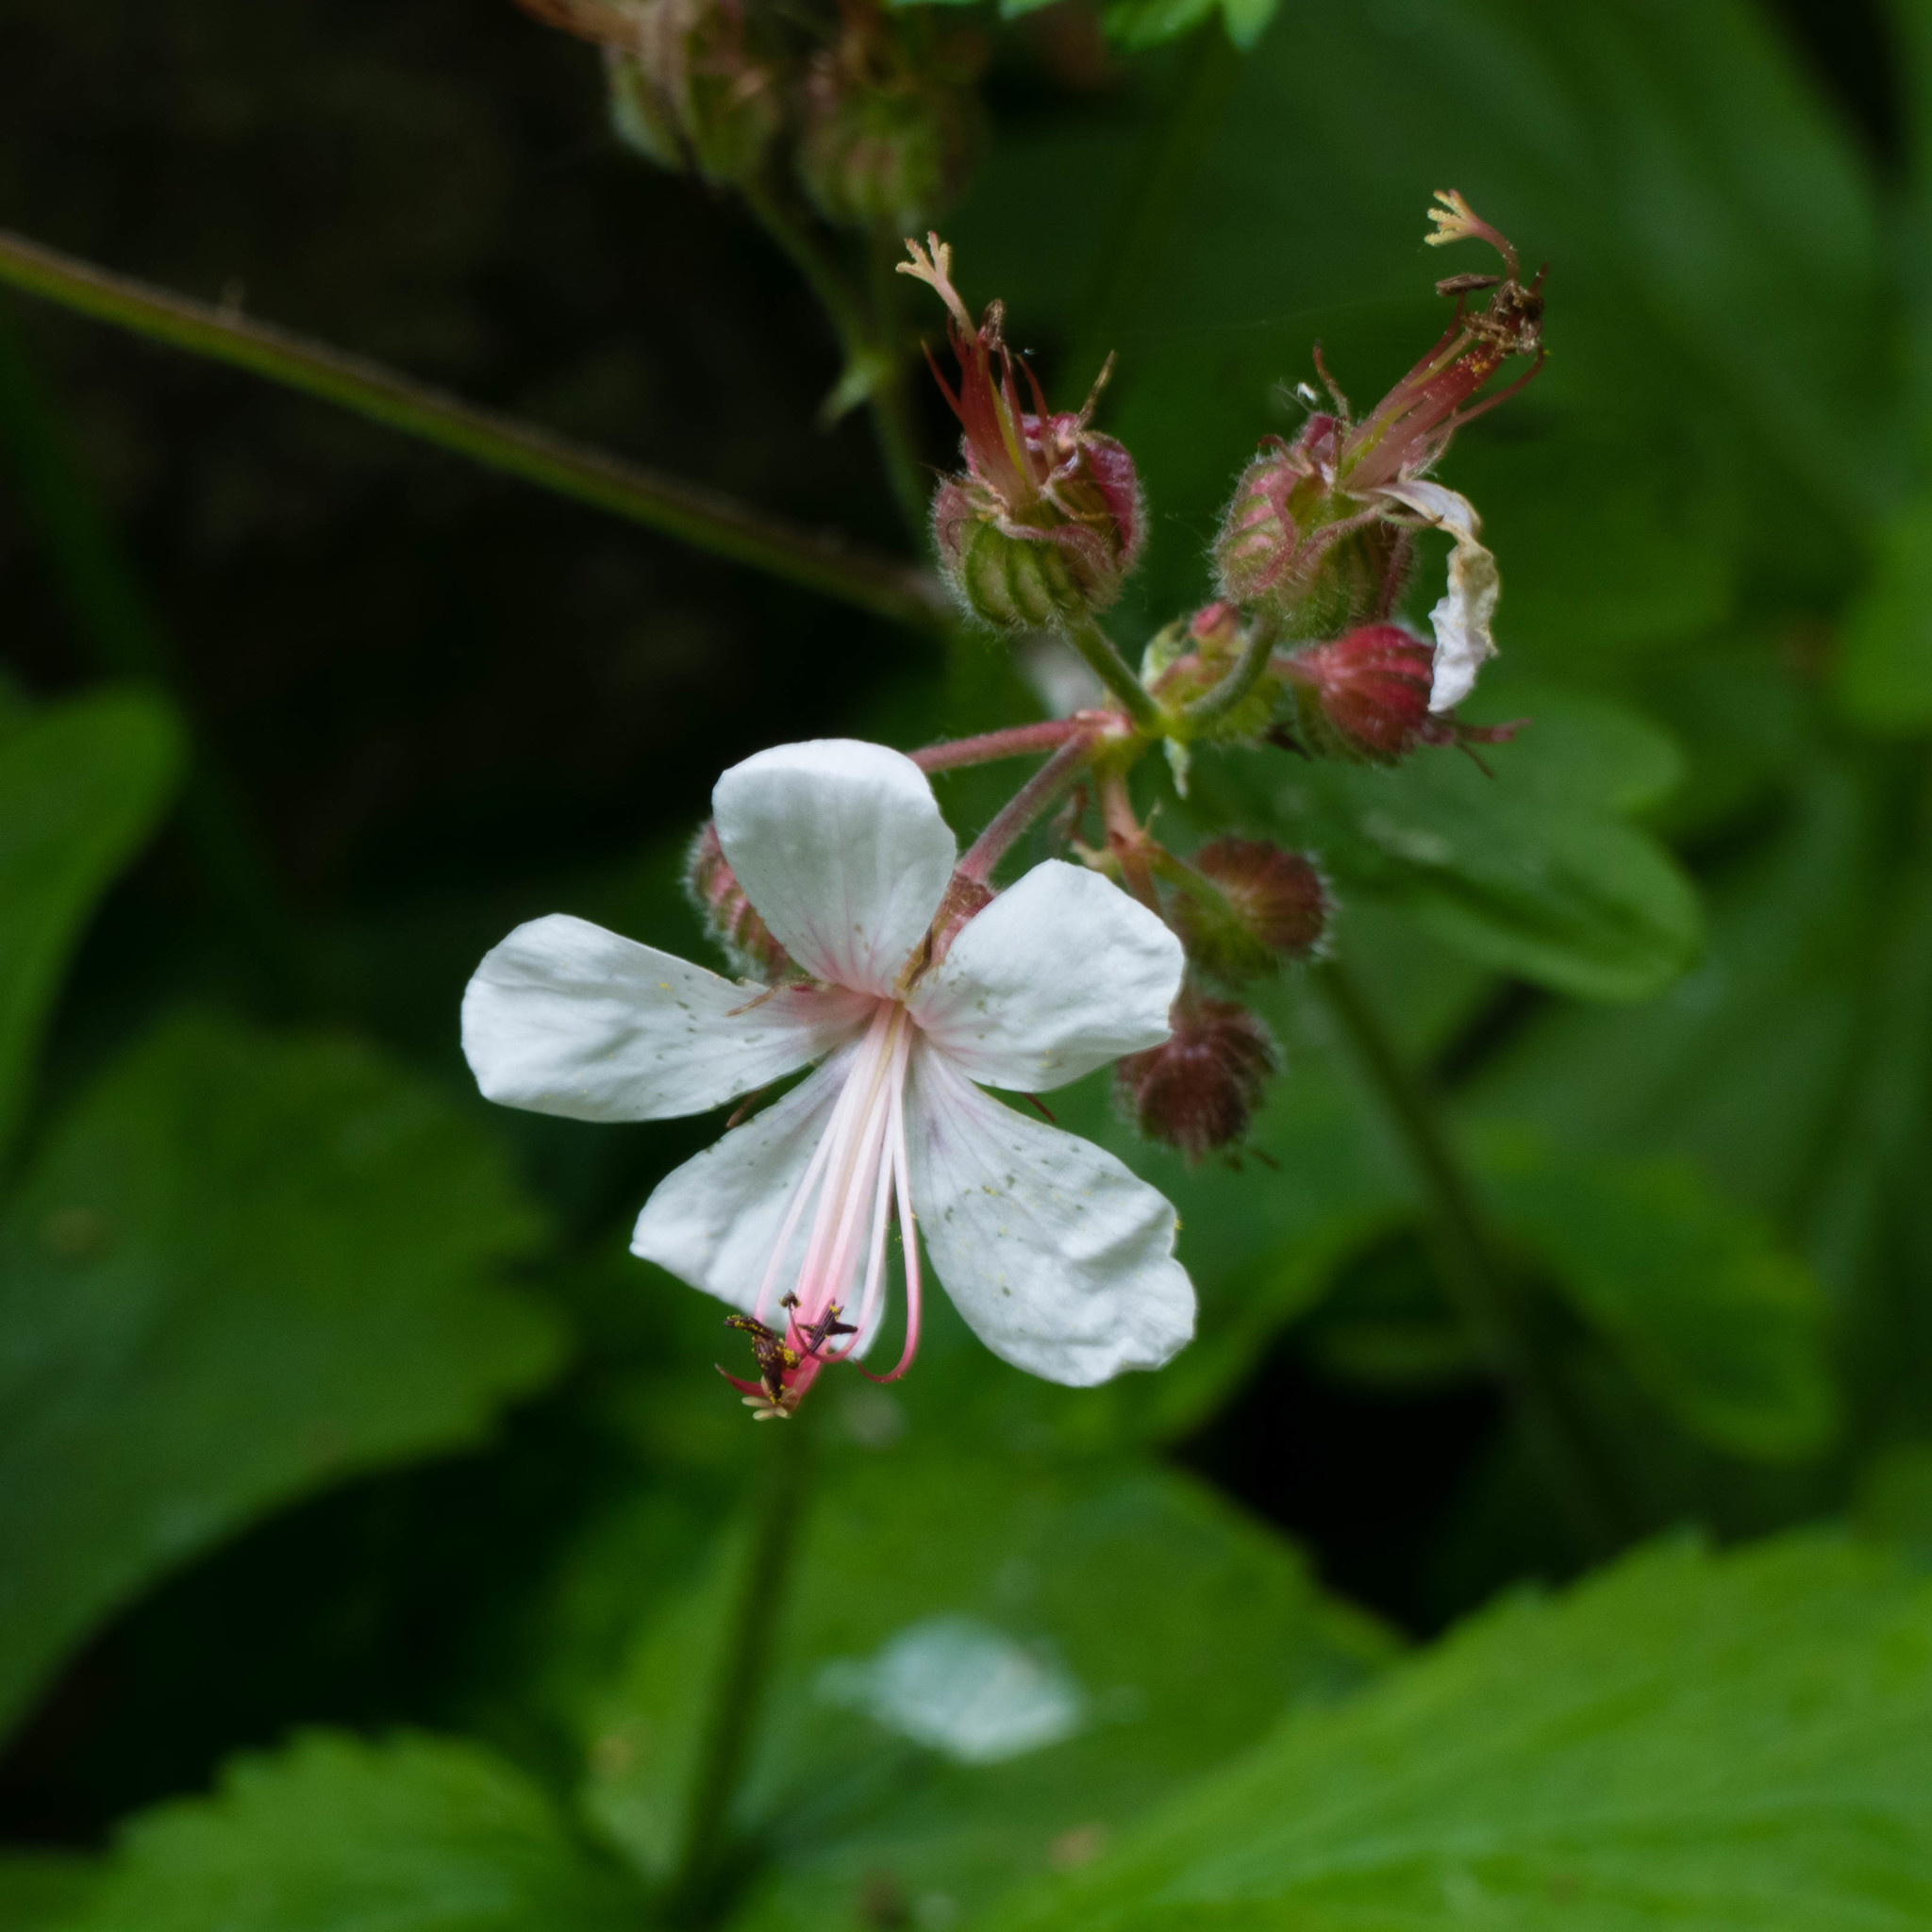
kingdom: Plantae
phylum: Tracheophyta
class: Magnoliopsida
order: Geraniales
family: Geraniaceae
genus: Geranium
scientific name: Geranium macrorrhizum
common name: Rock crane's-bill
